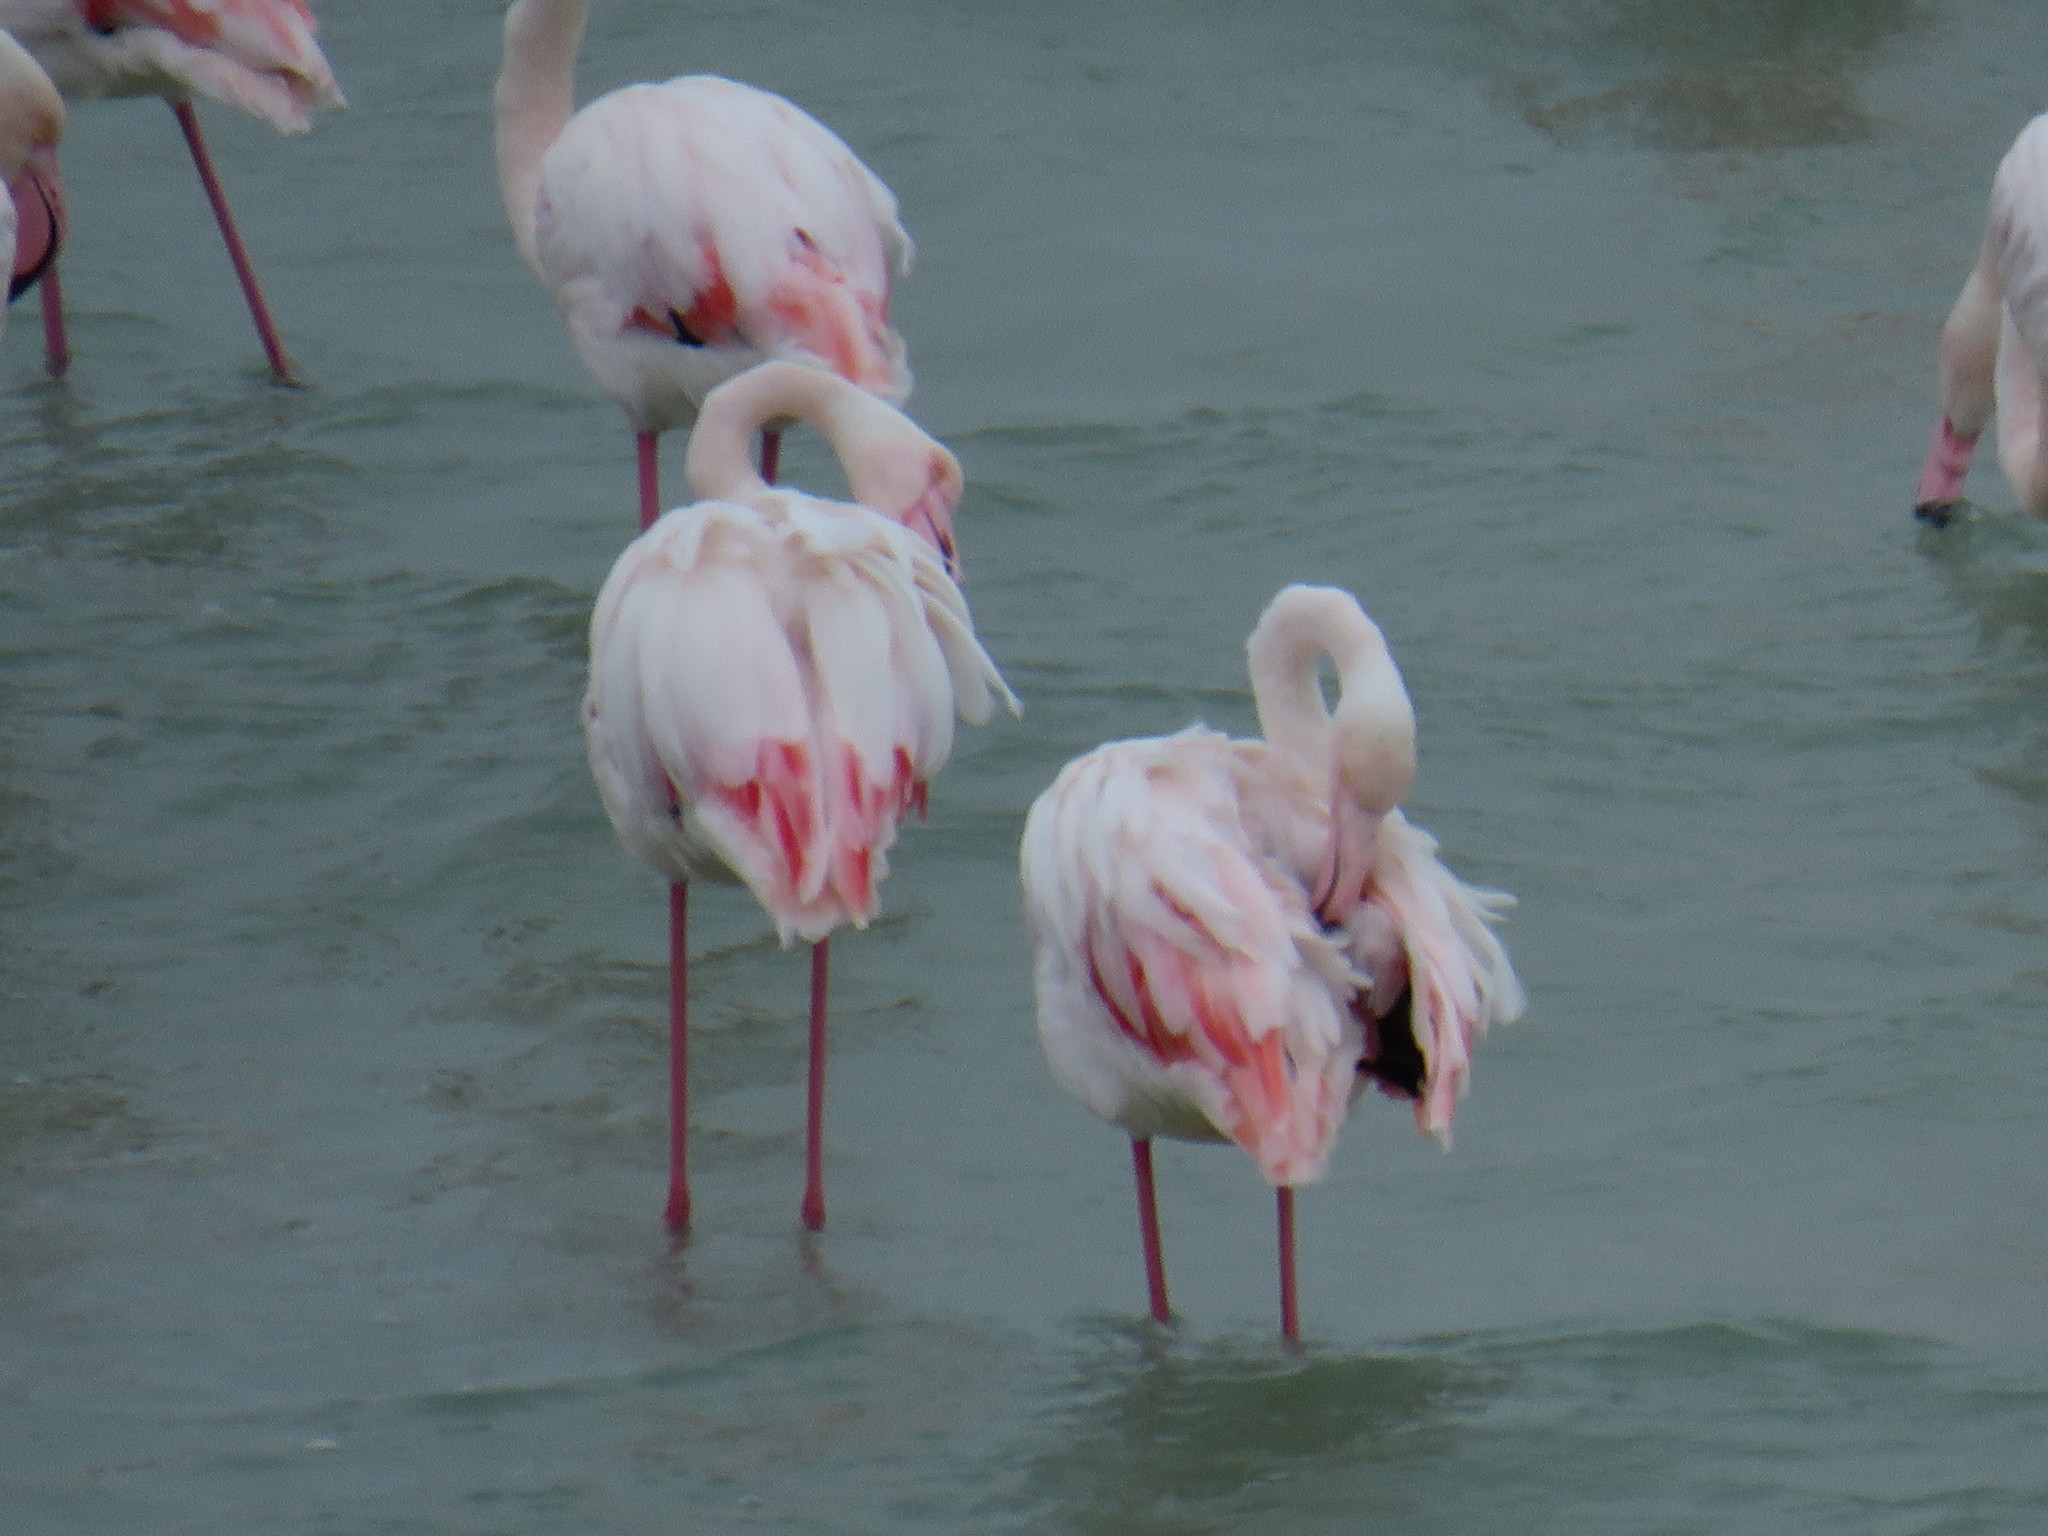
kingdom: Animalia
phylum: Chordata
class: Aves
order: Phoenicopteriformes
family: Phoenicopteridae
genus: Phoenicopterus
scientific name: Phoenicopterus roseus
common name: Greater flamingo
